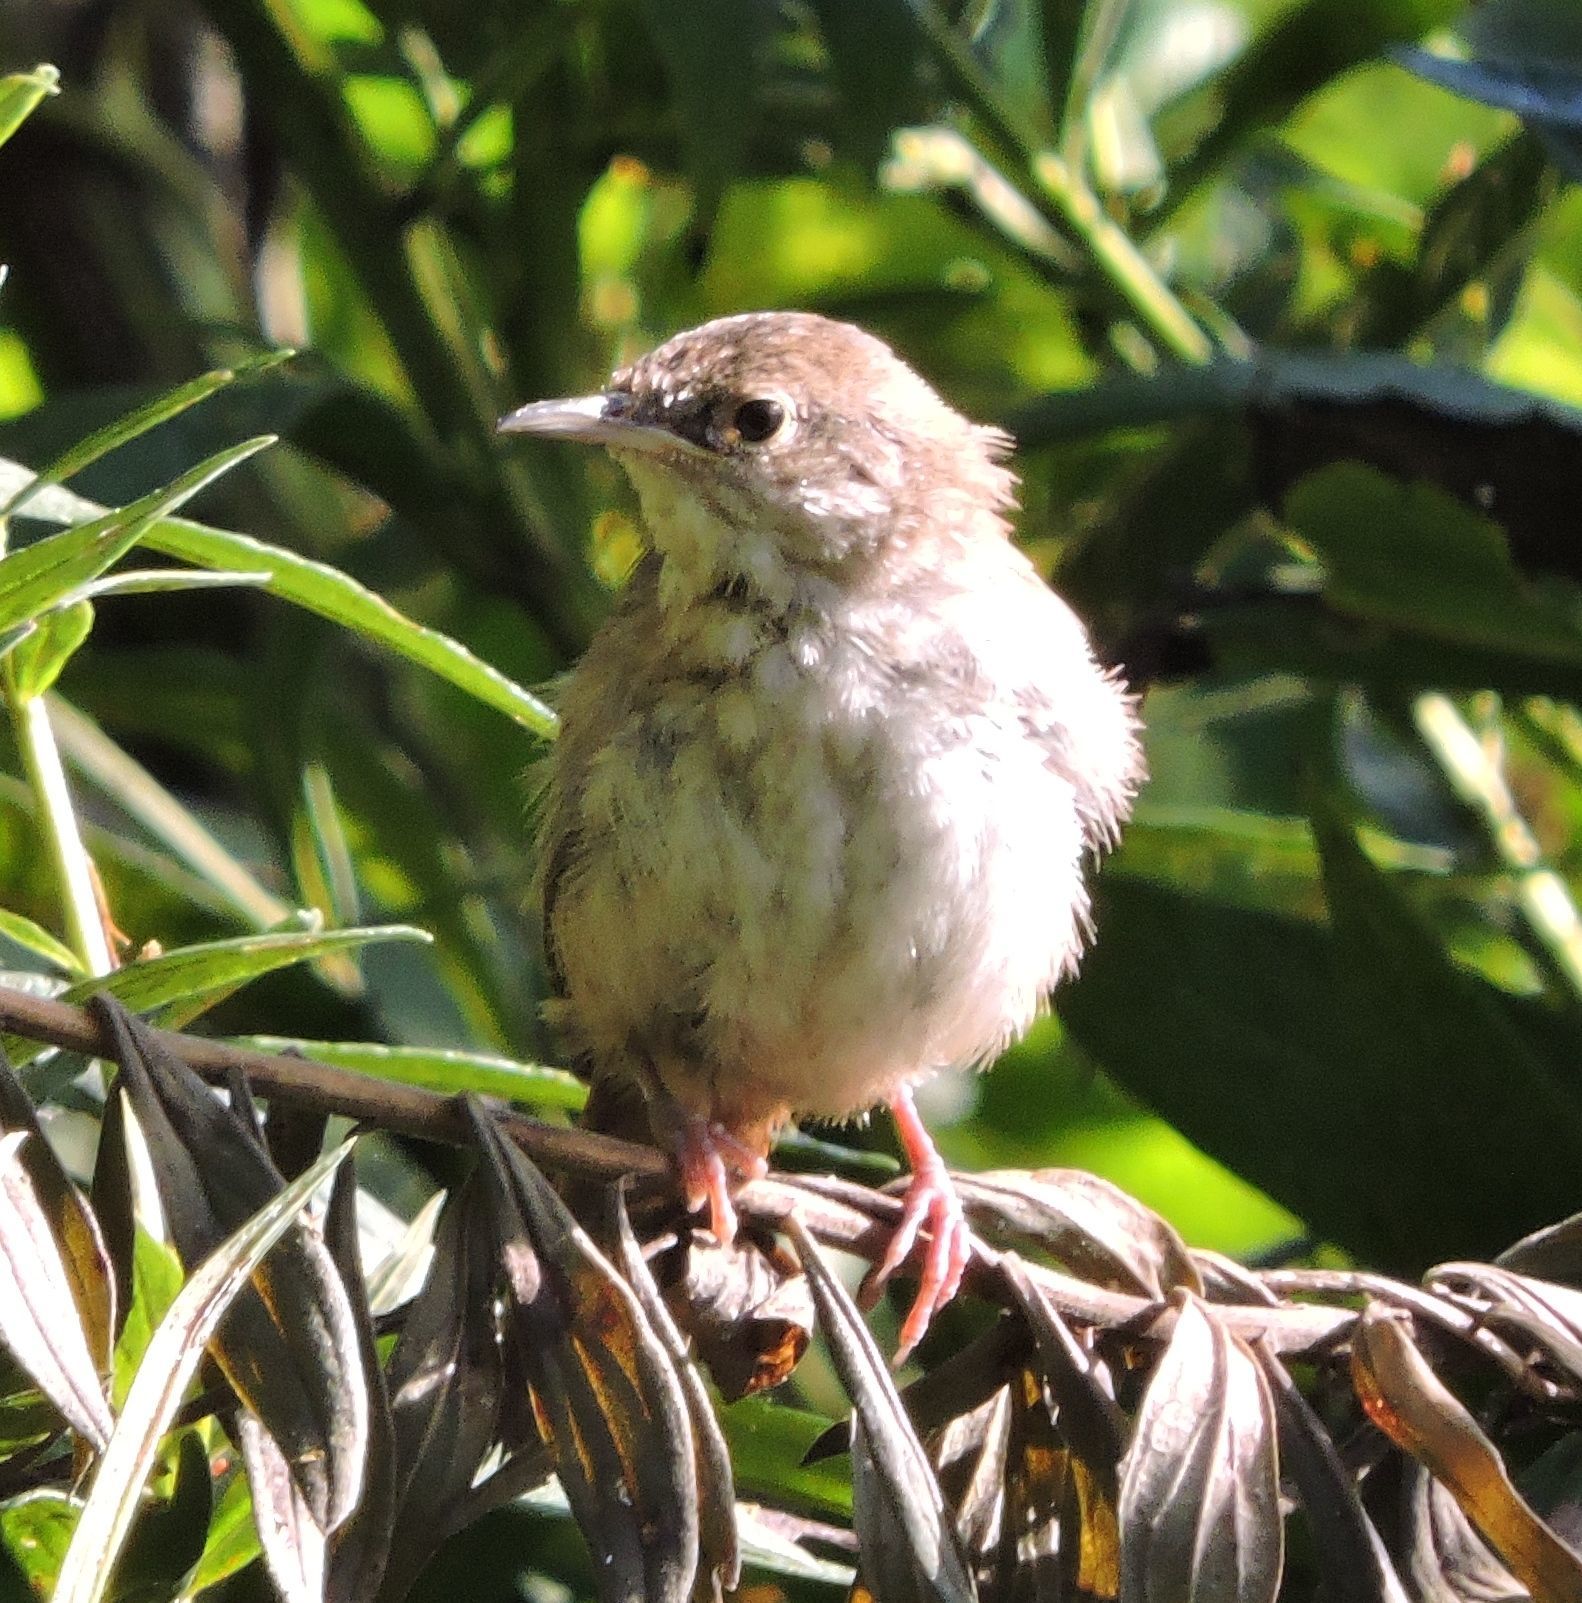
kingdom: Animalia
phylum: Chordata
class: Aves
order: Passeriformes
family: Troglodytidae
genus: Troglodytes
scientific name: Troglodytes aedon
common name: House wren
